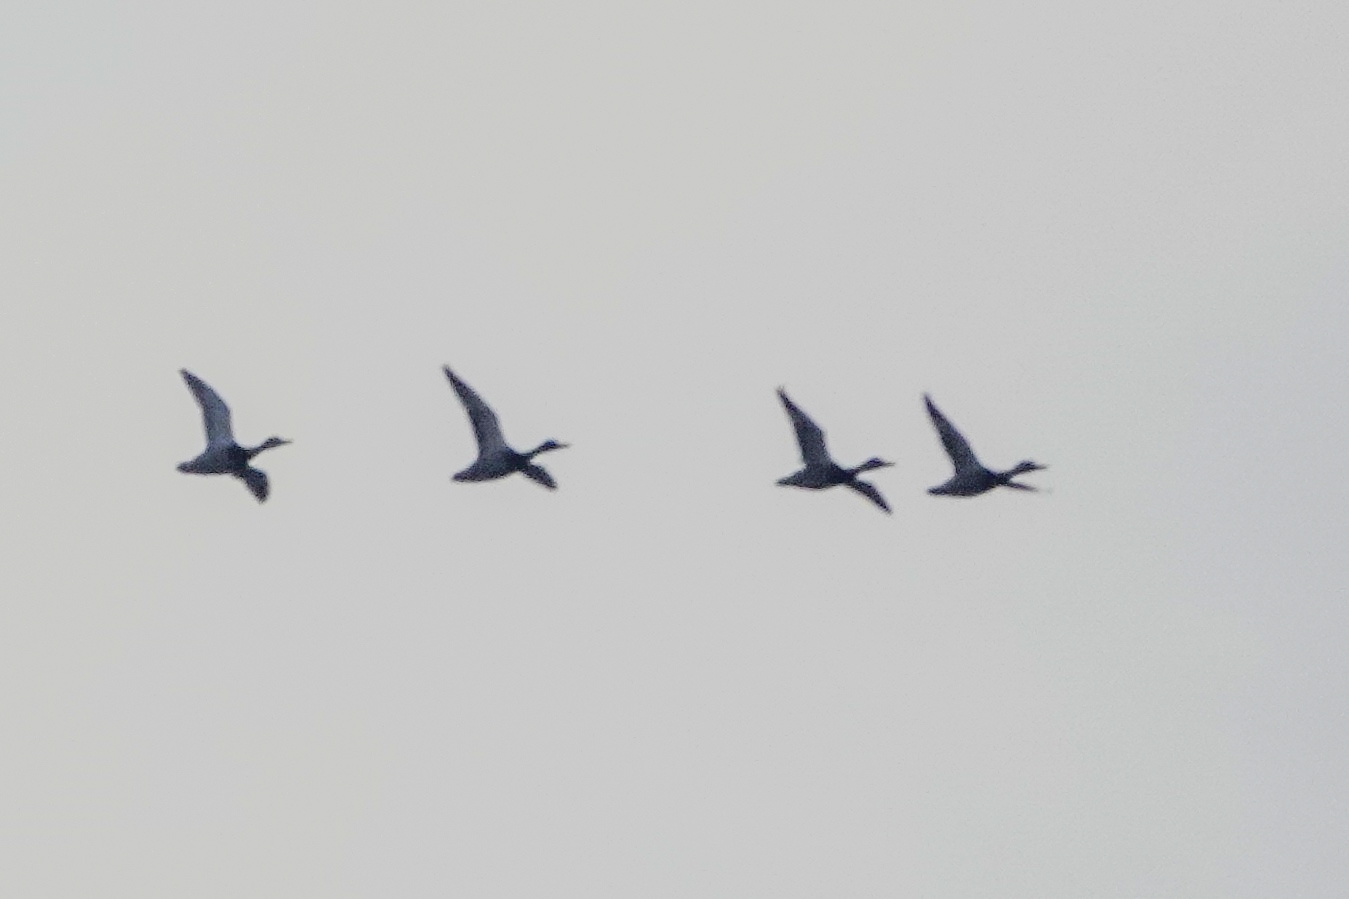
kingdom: Animalia
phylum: Chordata
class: Aves
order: Anseriformes
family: Anatidae
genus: Anas
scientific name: Anas platyrhynchos
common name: Mallard
